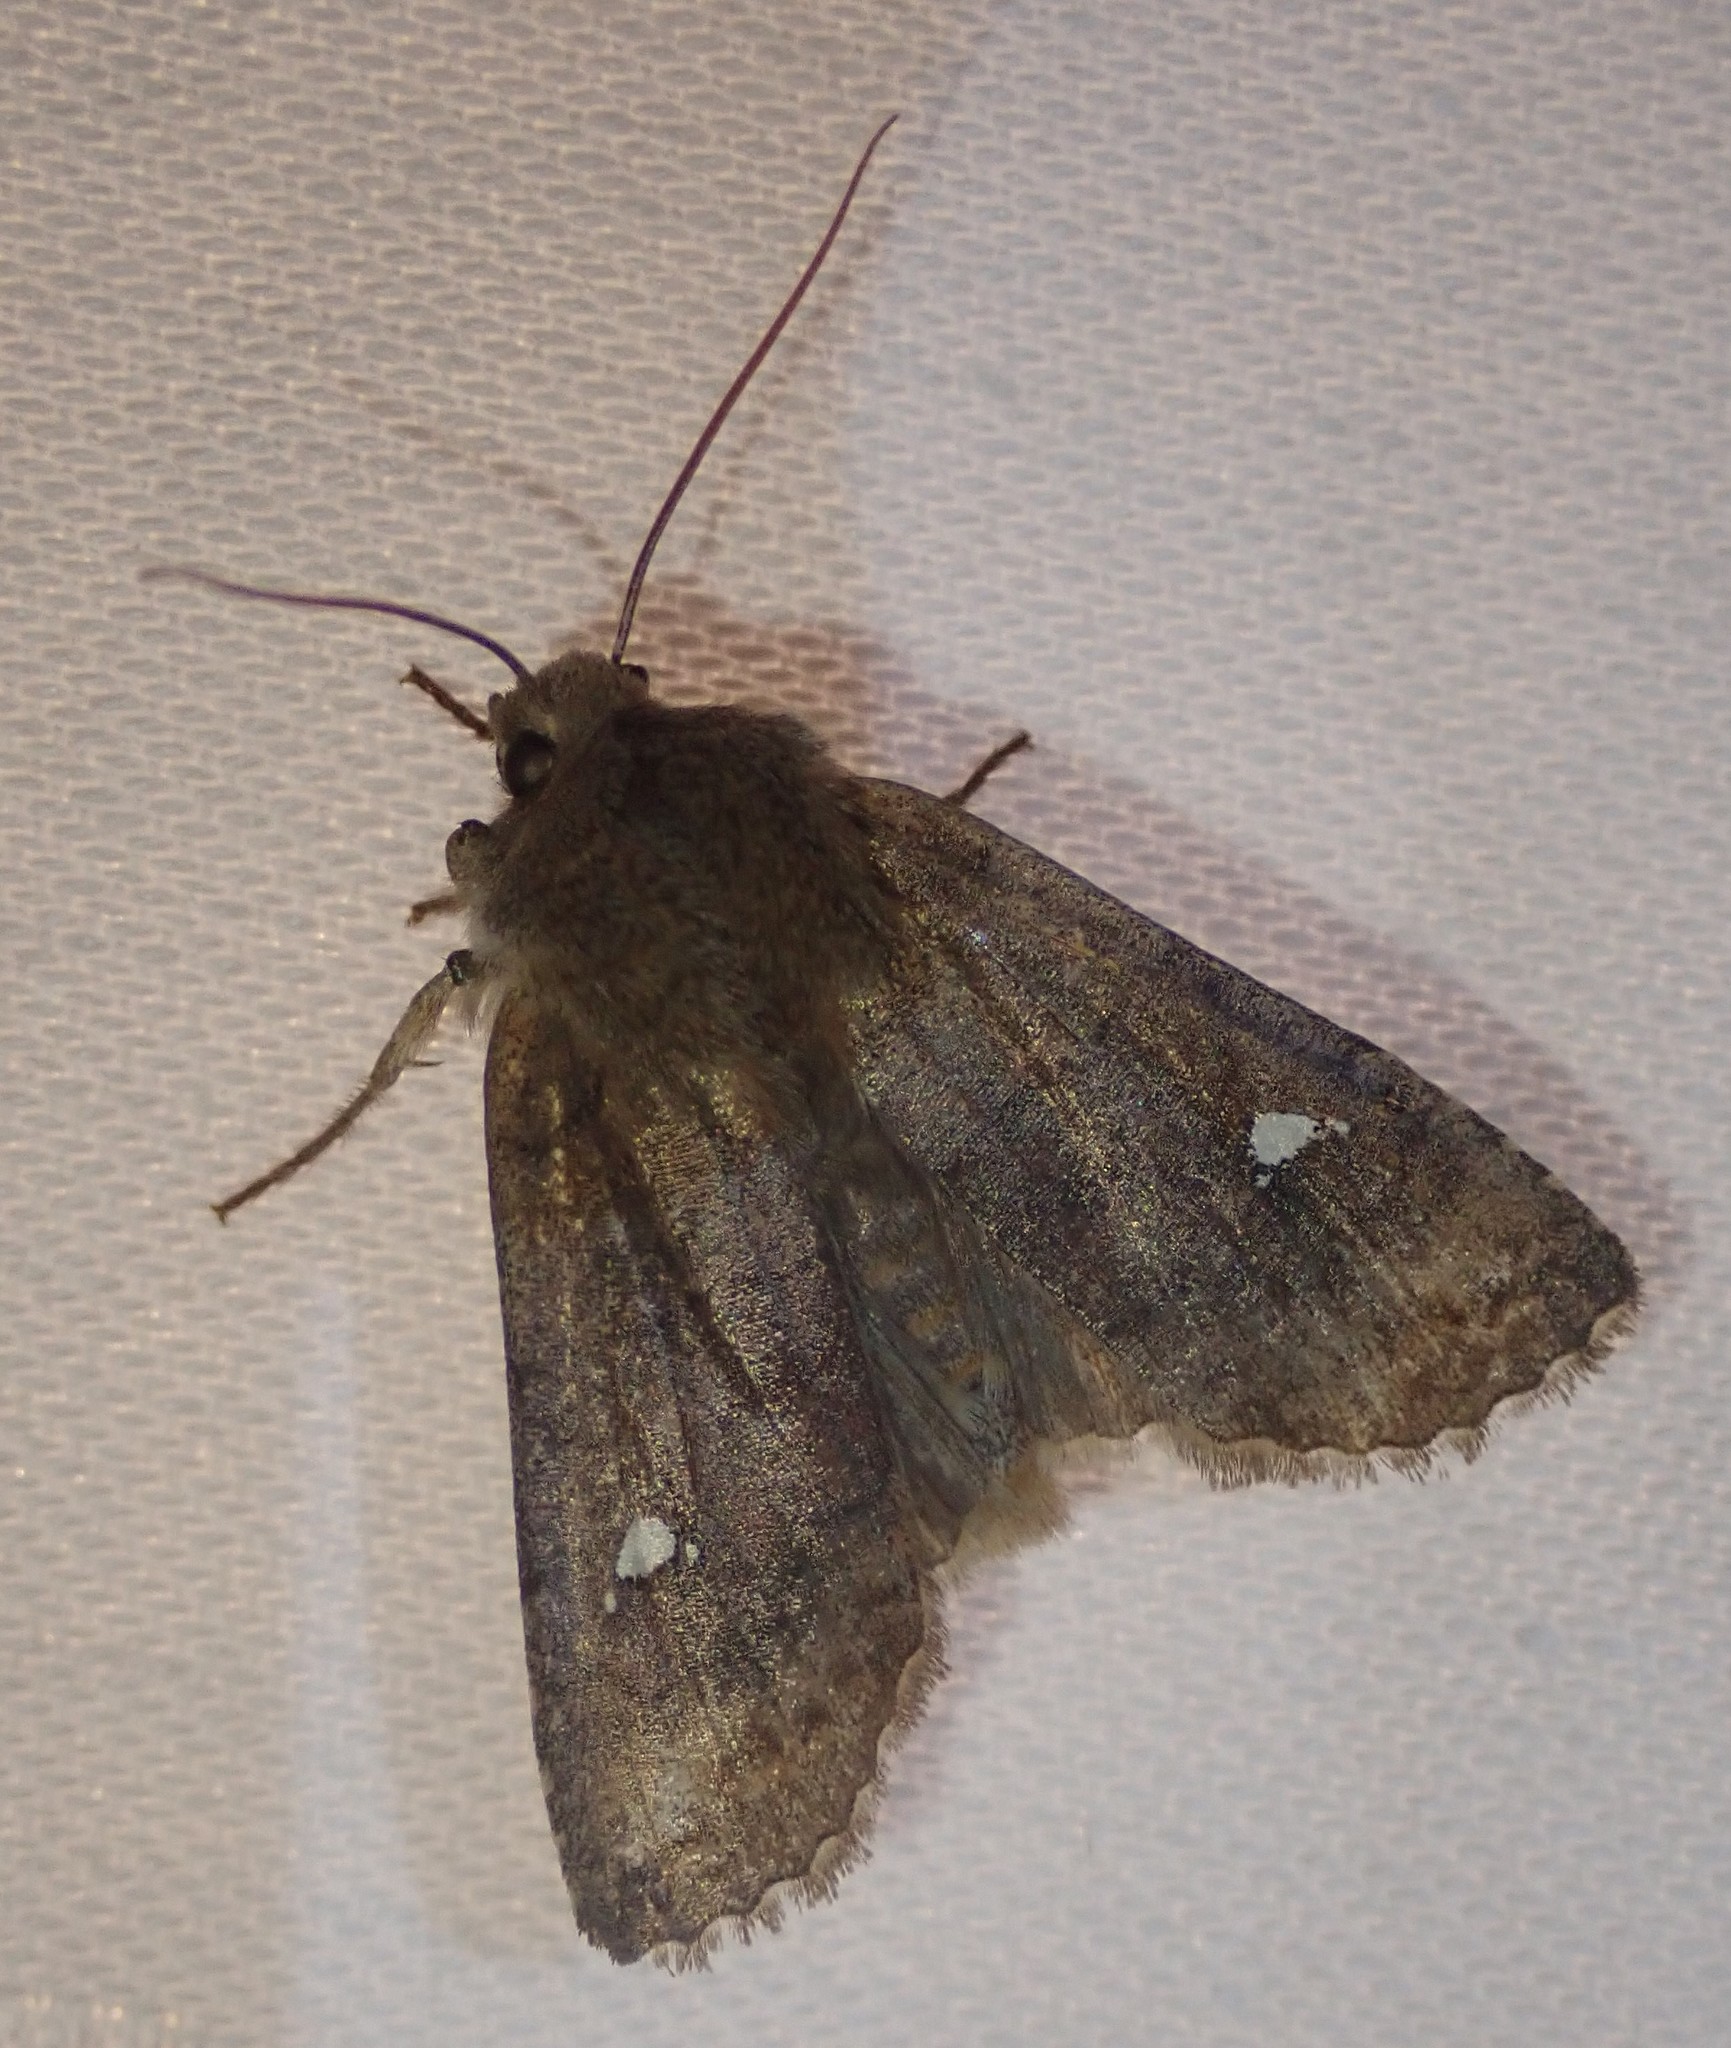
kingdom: Animalia
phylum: Arthropoda
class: Insecta
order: Lepidoptera
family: Noctuidae
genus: Eupsilia
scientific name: Eupsilia transversa
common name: Satellite
